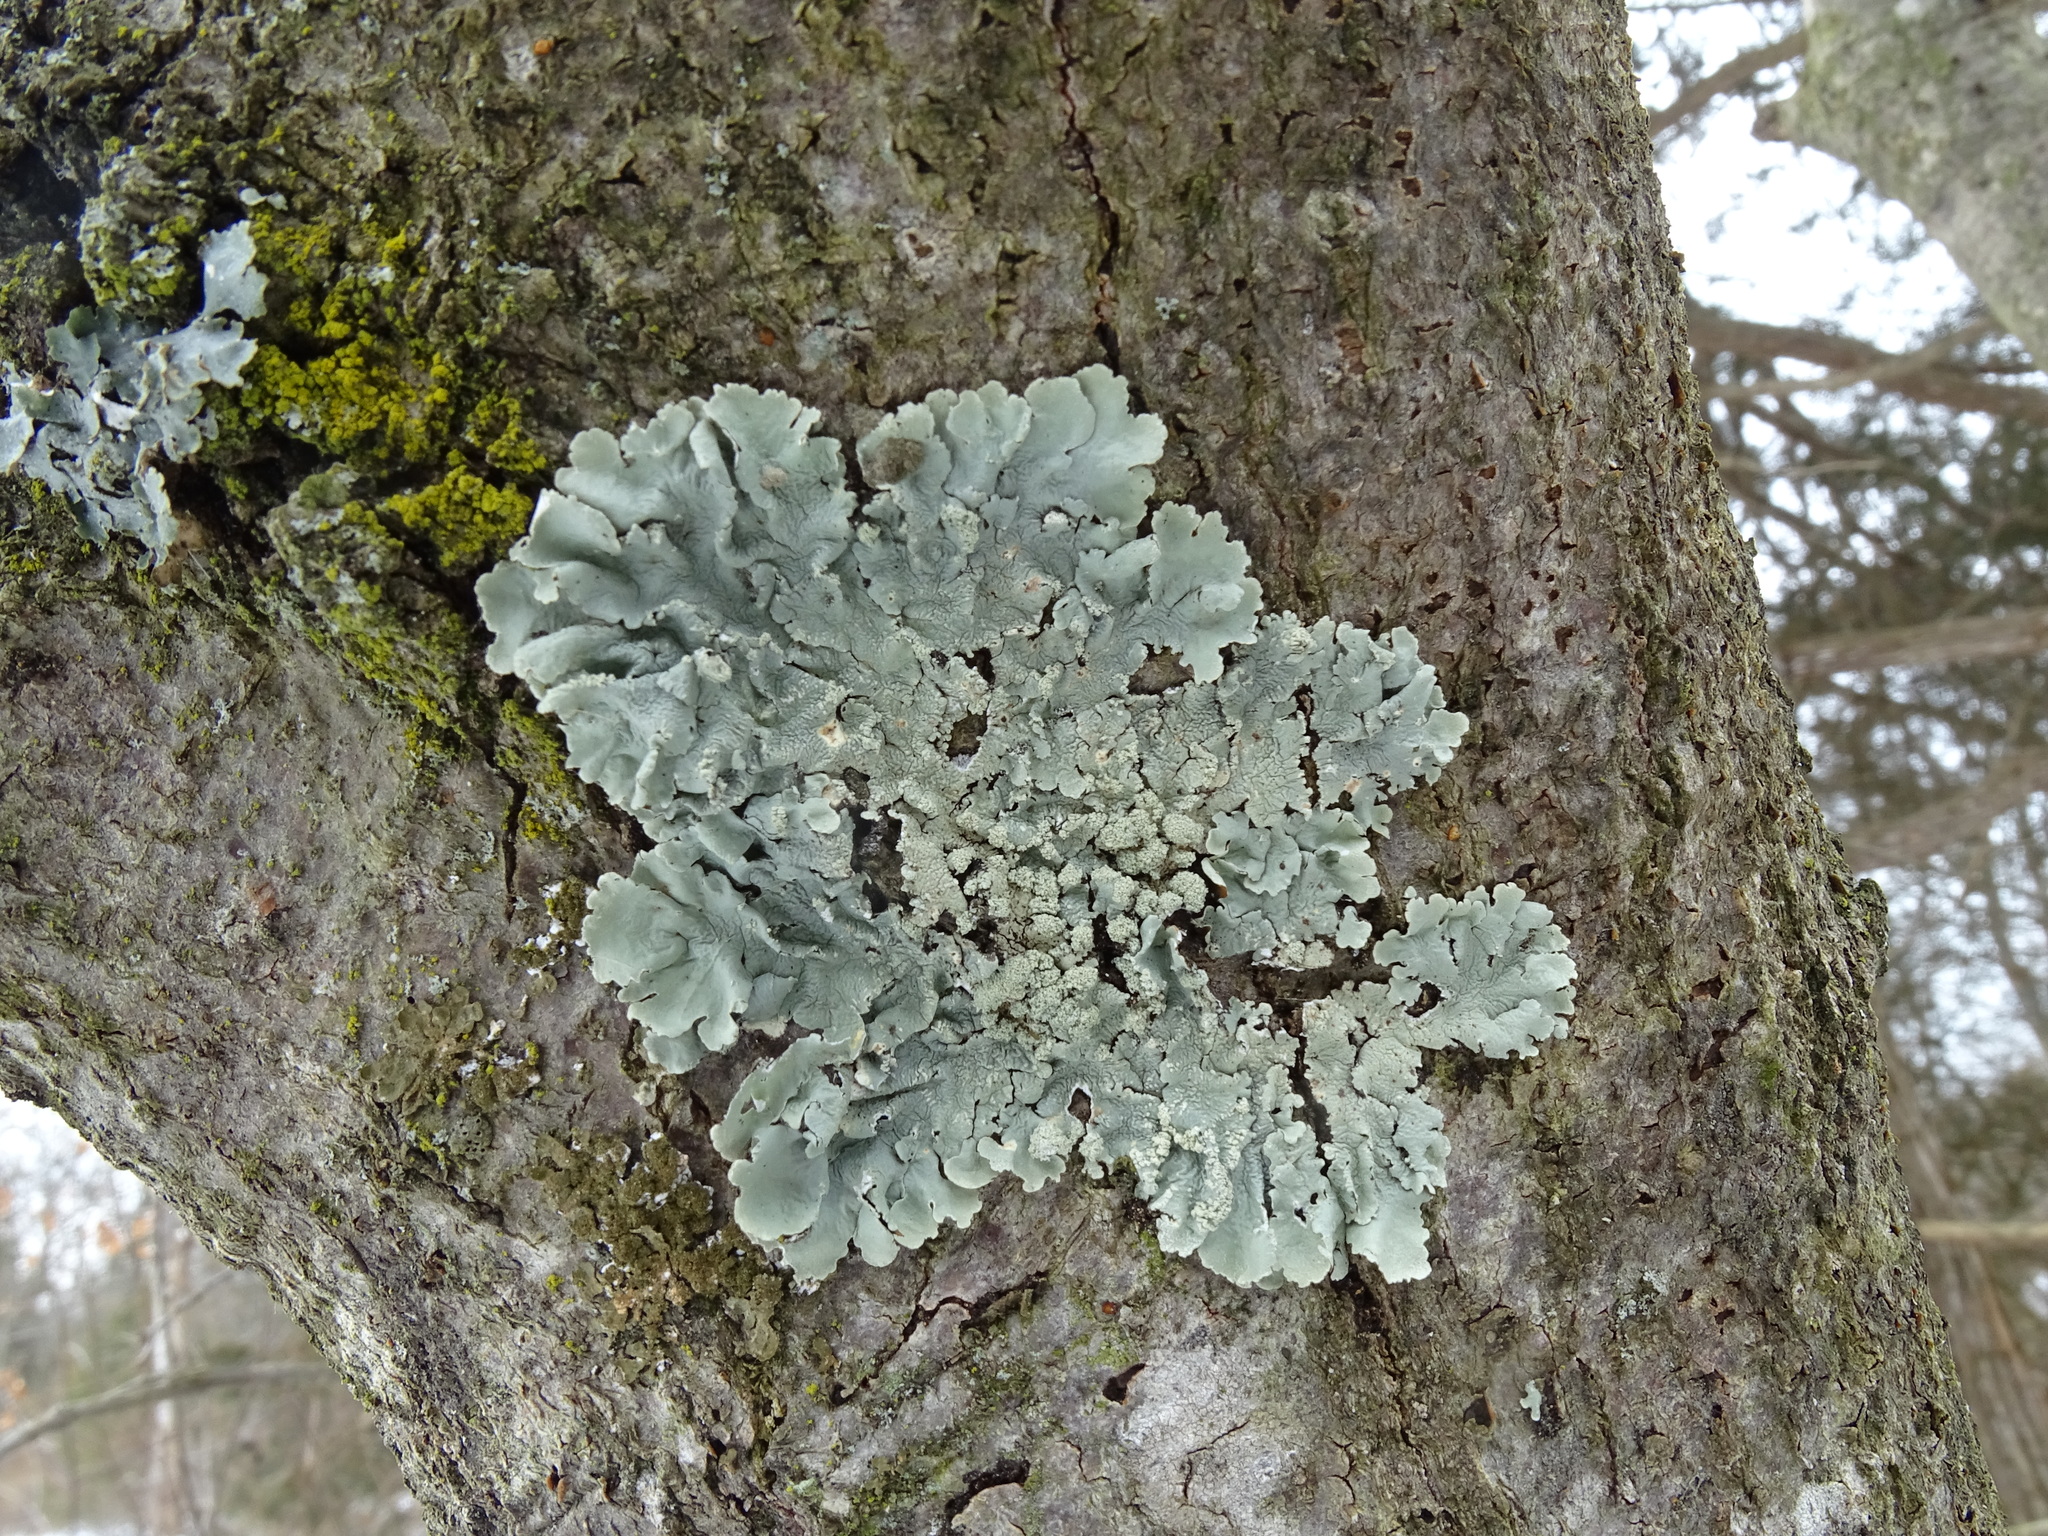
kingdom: Fungi
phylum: Ascomycota
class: Lecanoromycetes
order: Lecanorales
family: Parmeliaceae
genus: Flavoparmelia
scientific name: Flavoparmelia caperata
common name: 40-mile per hour lichen
